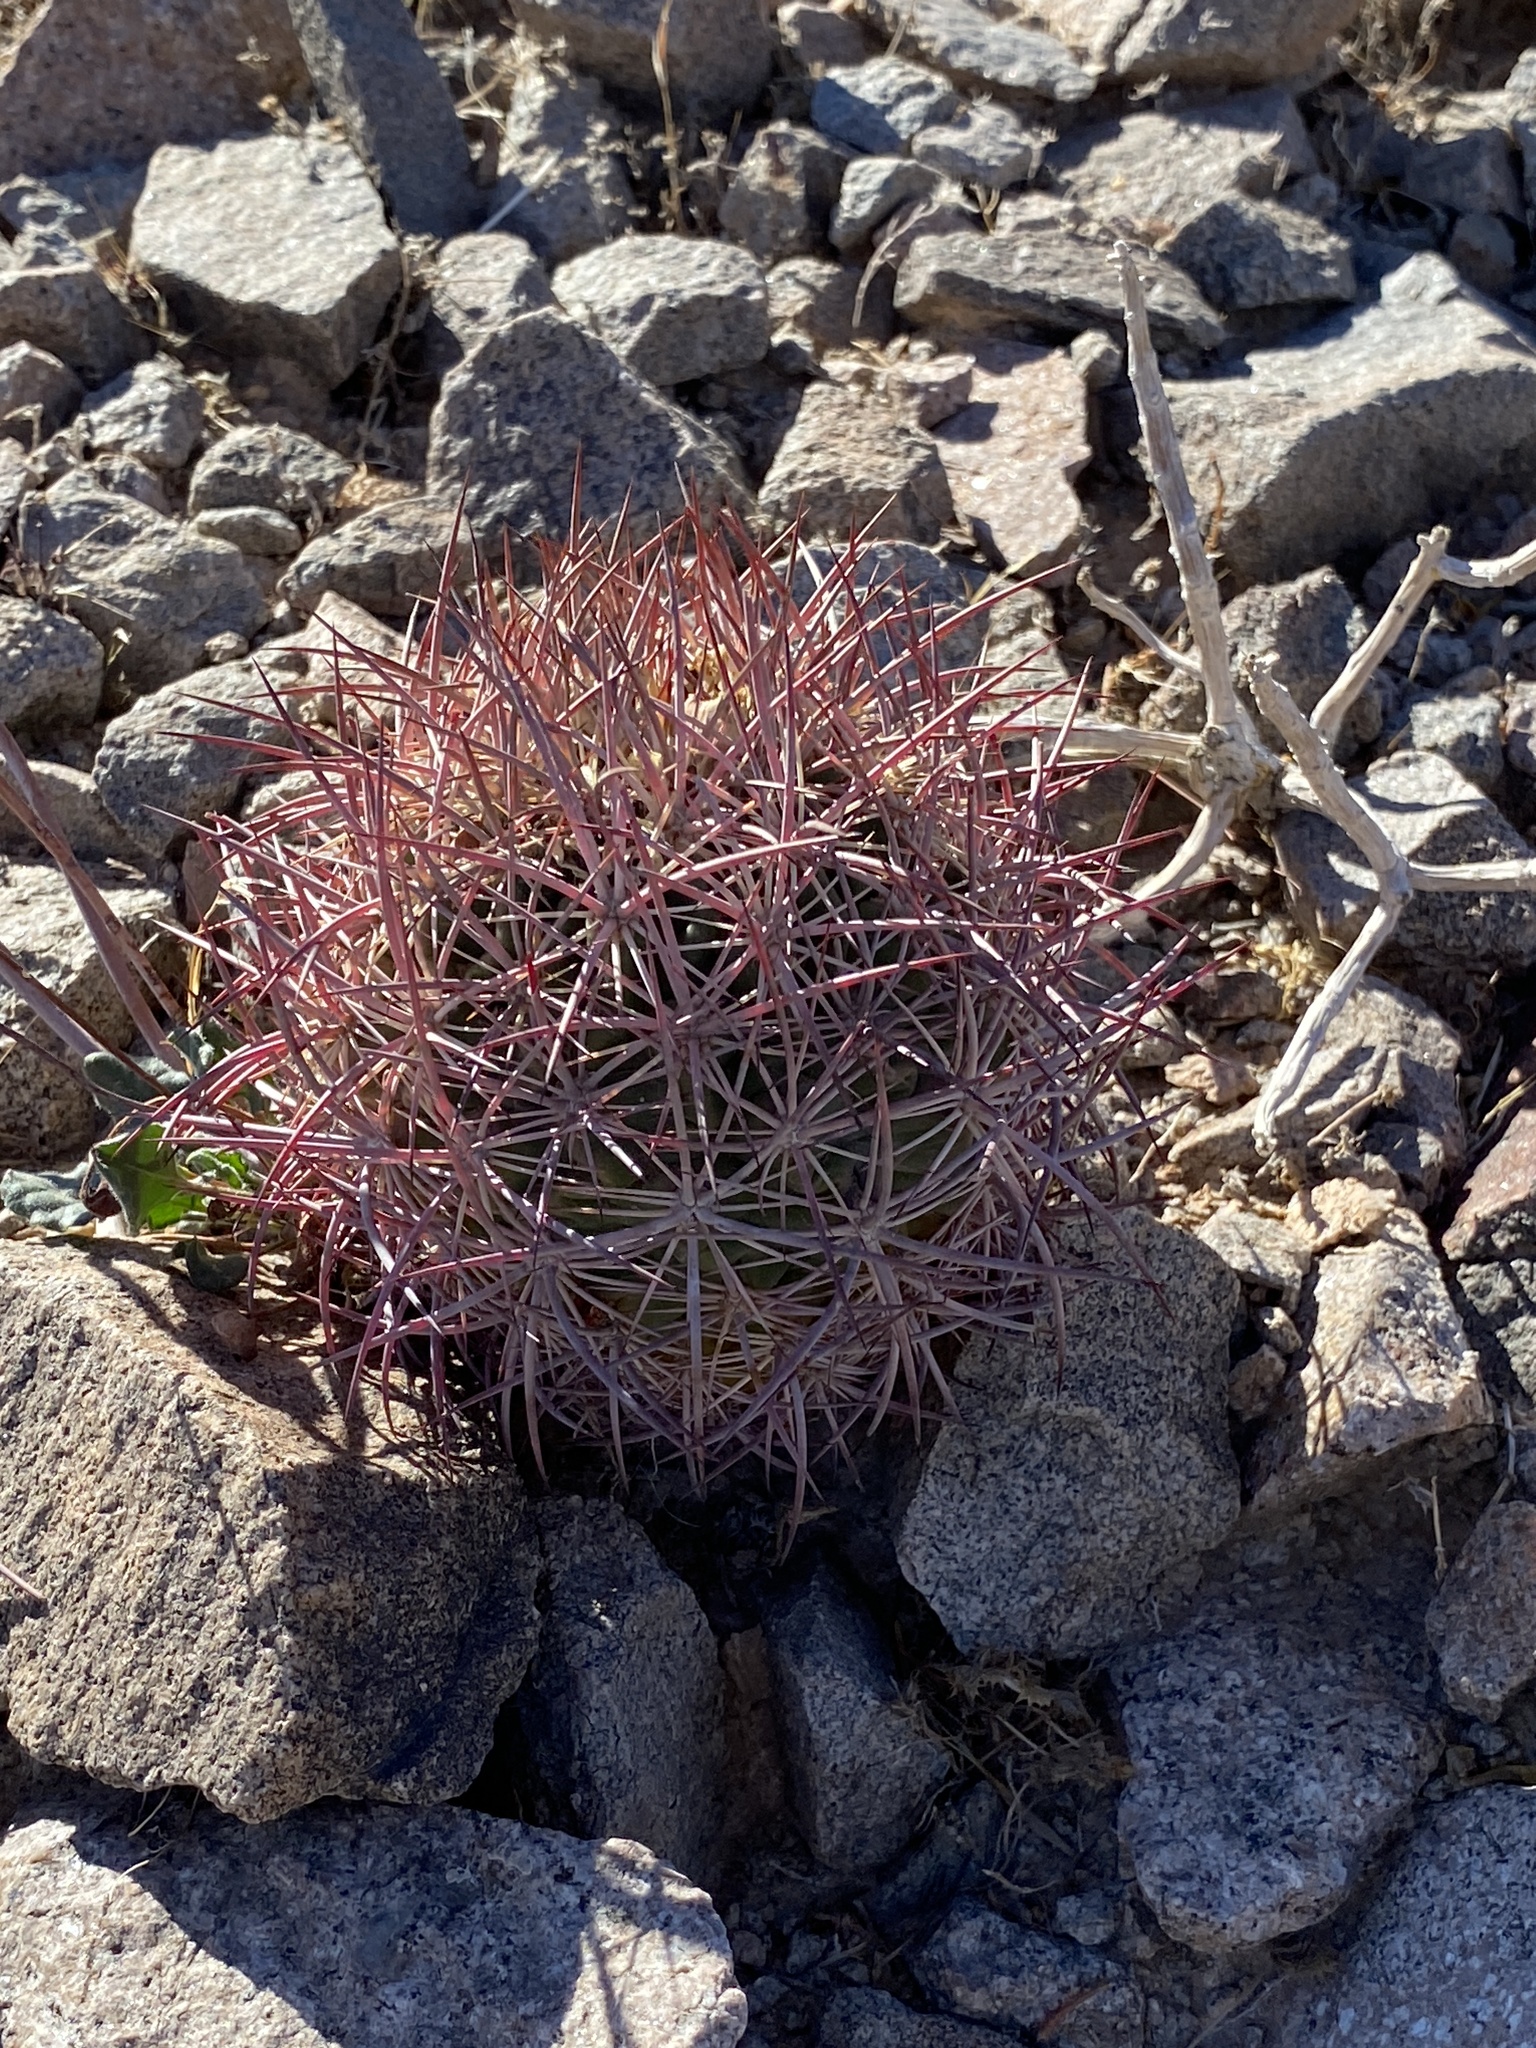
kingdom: Plantae
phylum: Tracheophyta
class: Magnoliopsida
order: Caryophyllales
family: Cactaceae
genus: Sclerocactus
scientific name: Sclerocactus johnsonii
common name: Eight-spine fishhook cactus
